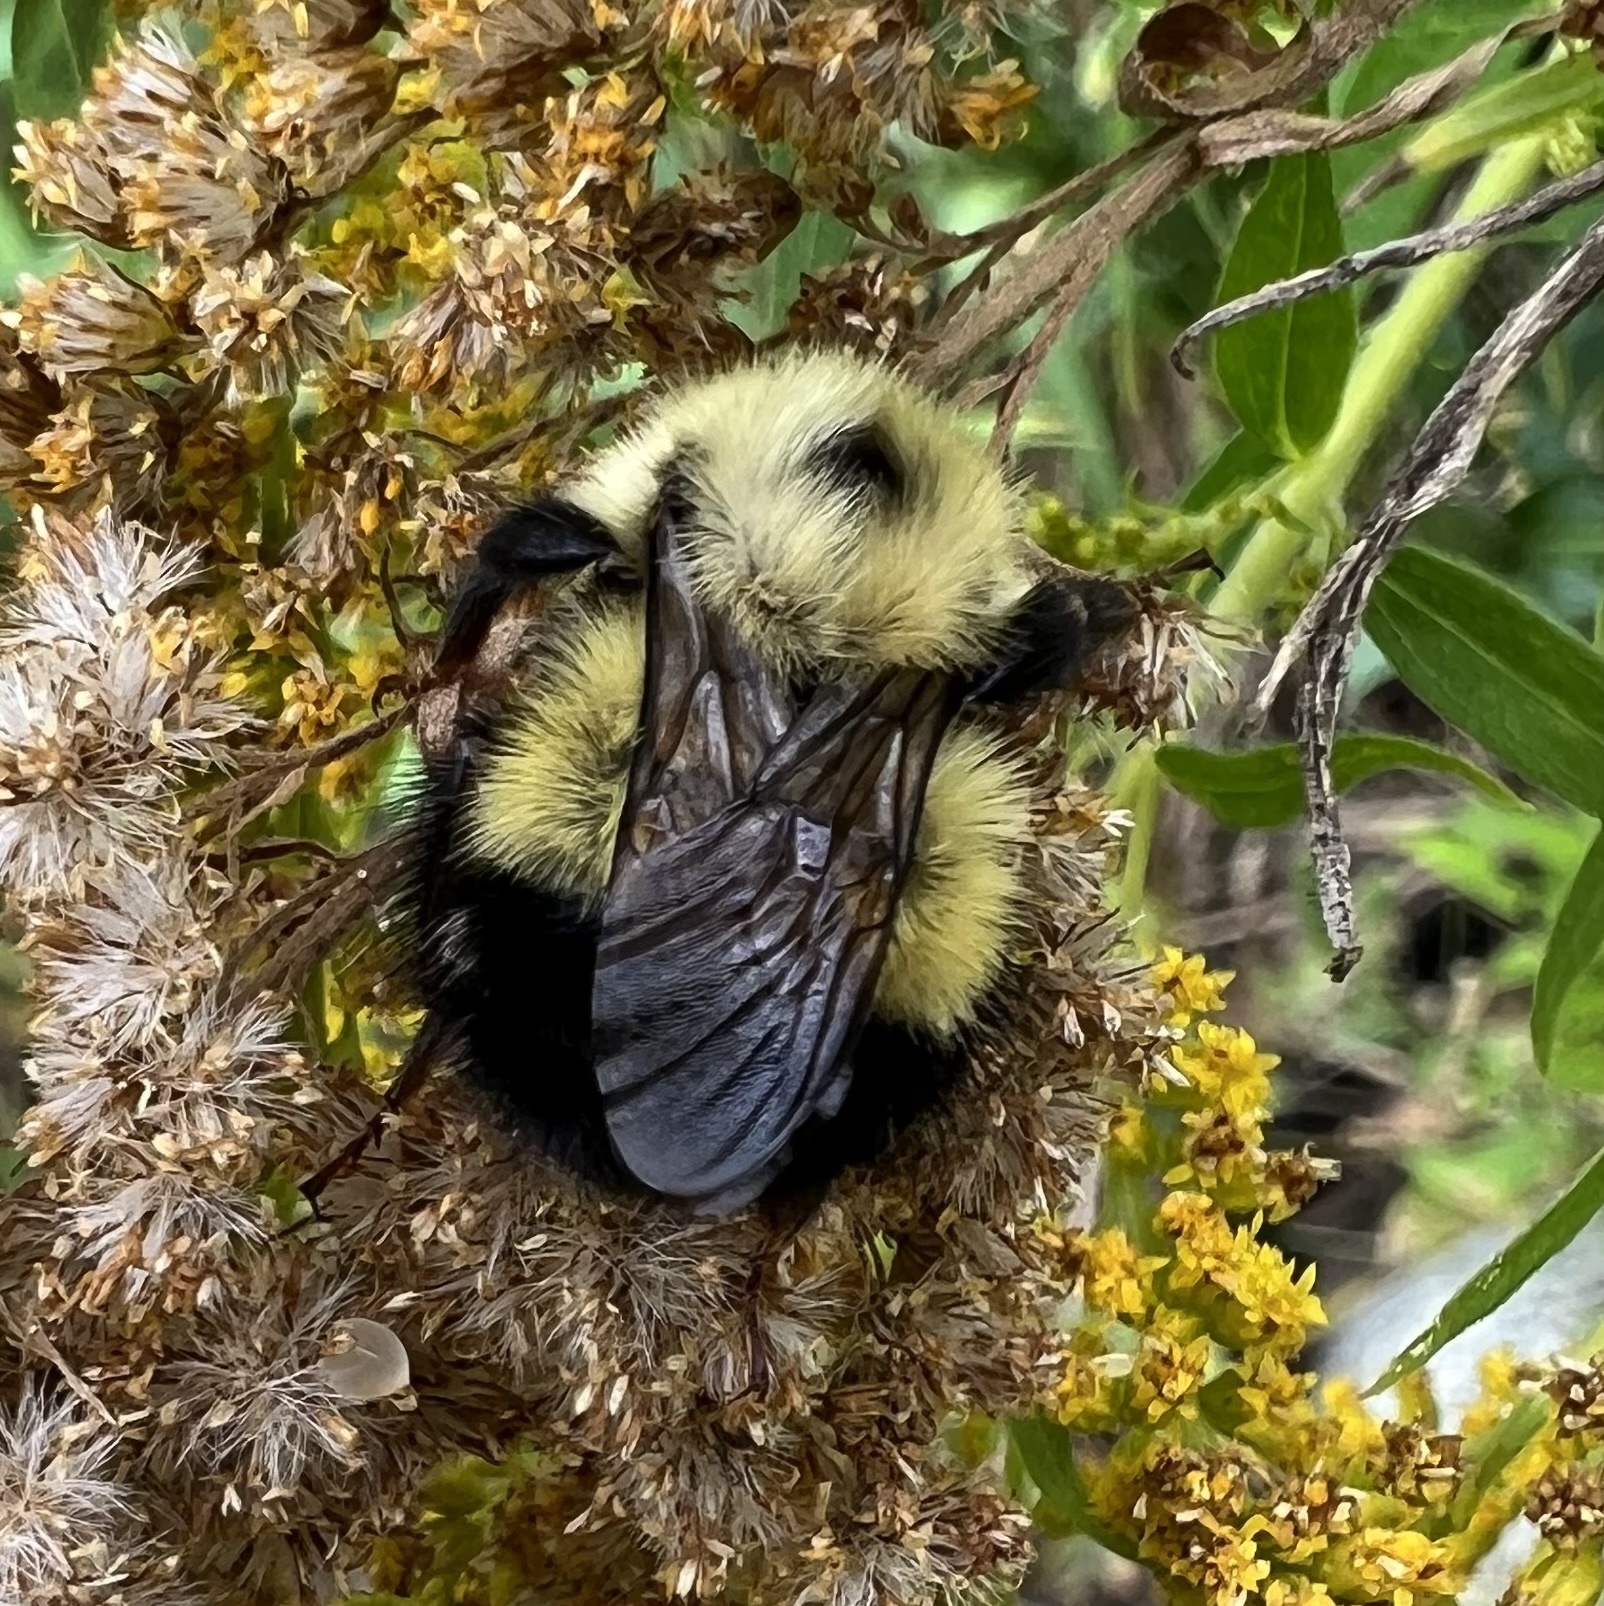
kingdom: Animalia
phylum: Arthropoda
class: Insecta
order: Hymenoptera
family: Apidae
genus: Pyrobombus
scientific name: Pyrobombus
